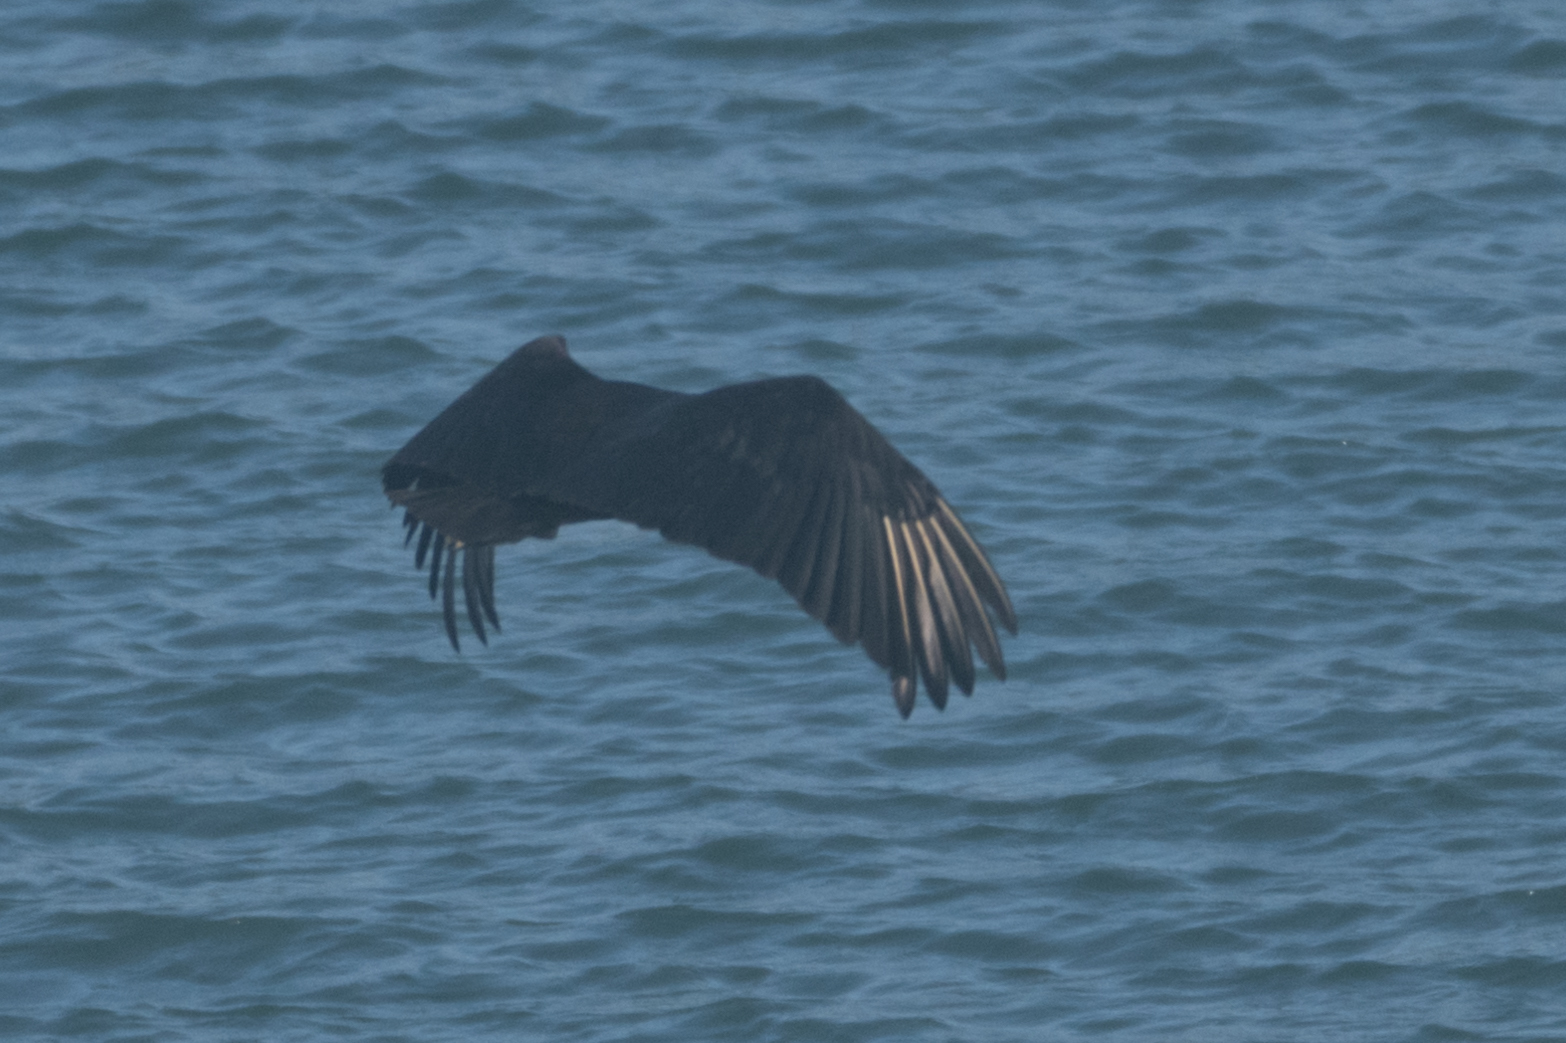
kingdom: Animalia
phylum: Chordata
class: Aves
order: Accipitriformes
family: Cathartidae
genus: Coragyps
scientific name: Coragyps atratus
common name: Black vulture
